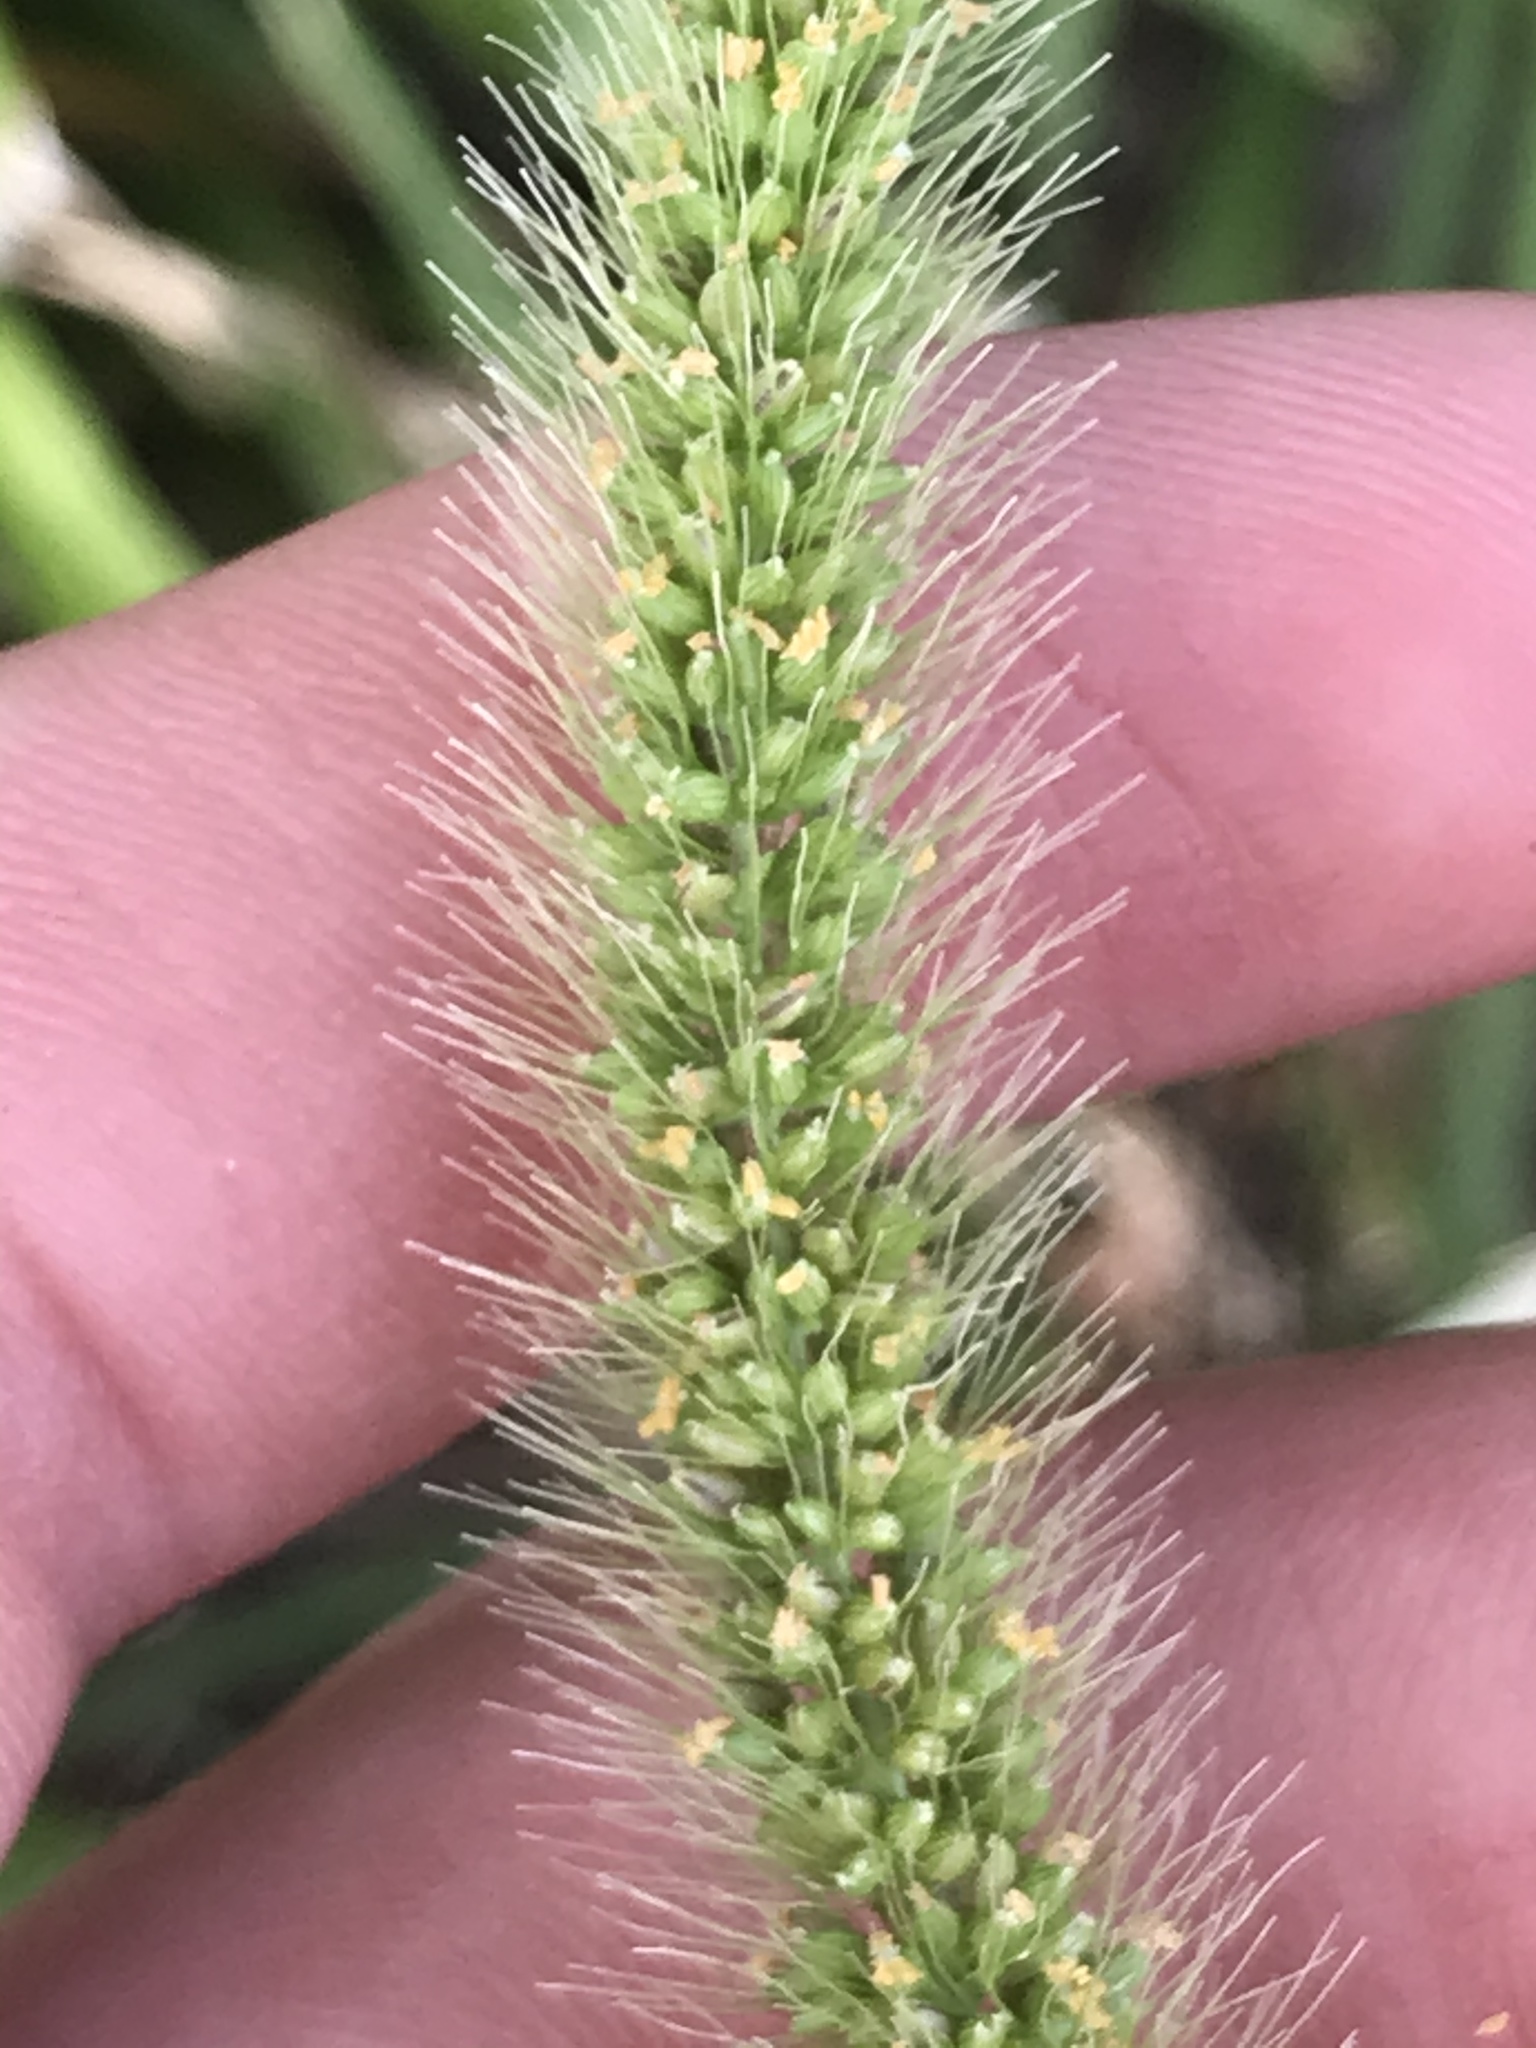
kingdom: Plantae
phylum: Tracheophyta
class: Liliopsida
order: Poales
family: Poaceae
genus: Setaria
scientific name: Setaria viridis
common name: Green bristlegrass
